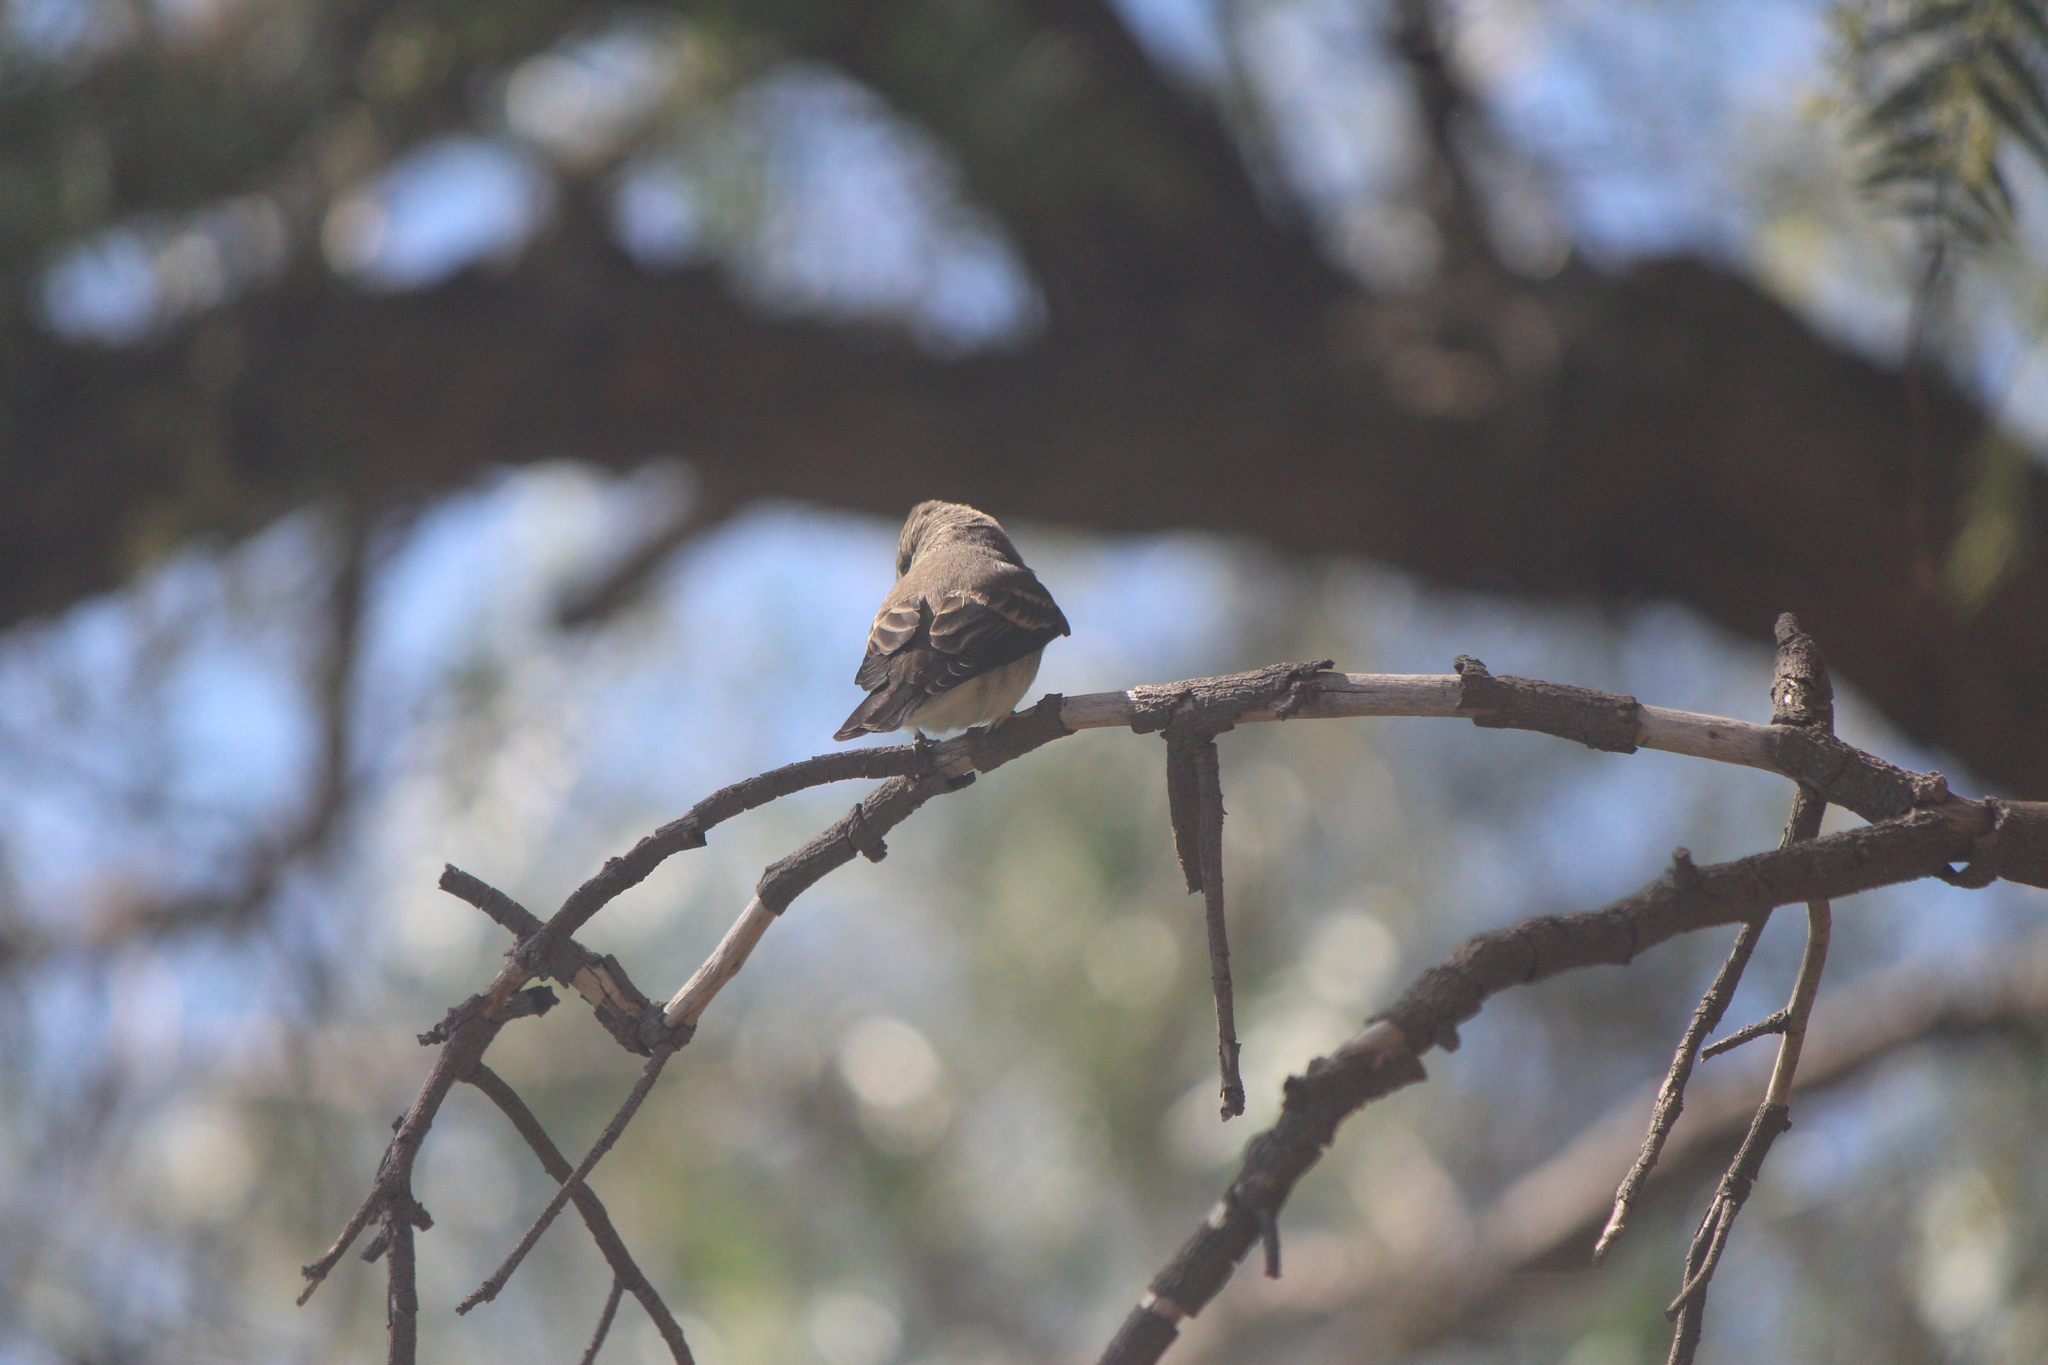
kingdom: Animalia
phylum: Chordata
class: Aves
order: Passeriformes
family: Tyrannidae
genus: Contopus
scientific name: Contopus sordidulus
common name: Western wood-pewee
